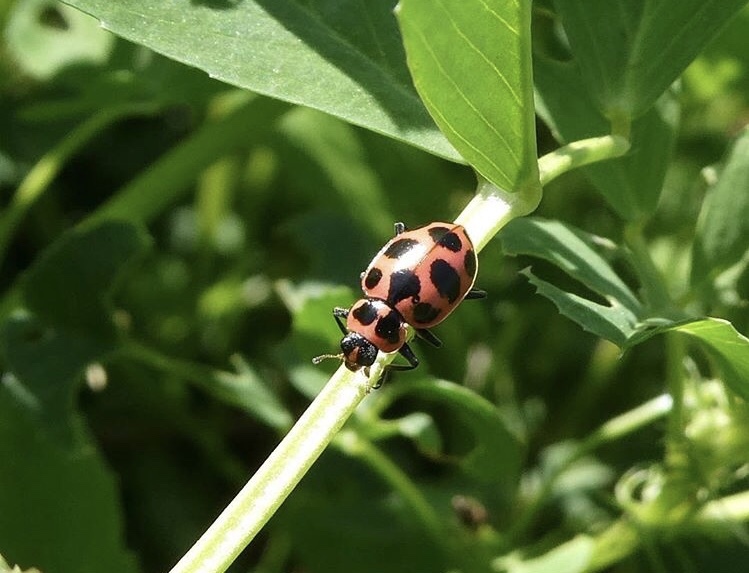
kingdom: Animalia
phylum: Arthropoda
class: Insecta
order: Coleoptera
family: Coccinellidae
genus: Coleomegilla
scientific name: Coleomegilla maculata
